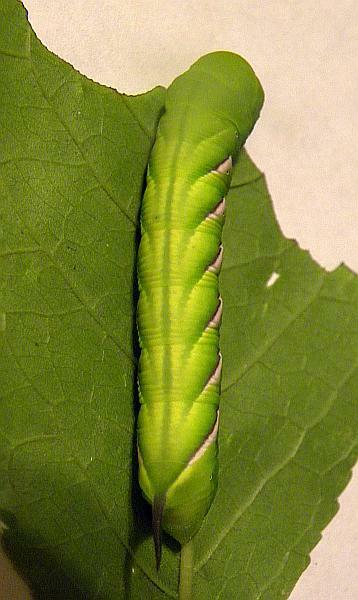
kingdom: Animalia
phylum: Arthropoda
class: Insecta
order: Lepidoptera
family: Sphingidae
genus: Dolba
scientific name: Dolba hyloeus
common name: Pawpaw sphinx
